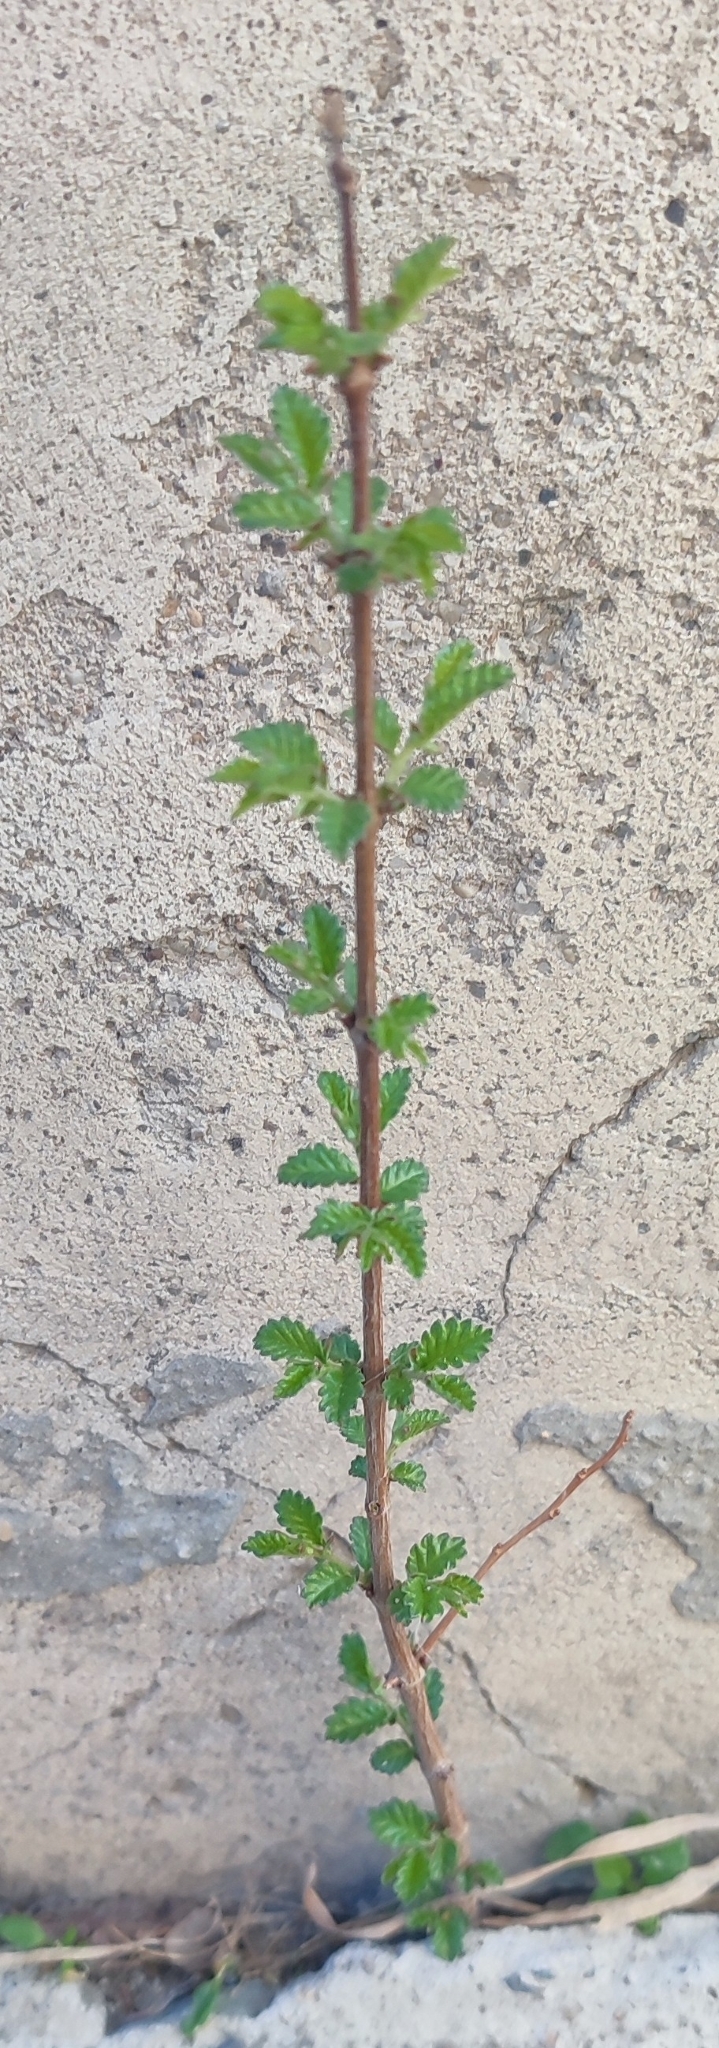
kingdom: Plantae
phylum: Tracheophyta
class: Magnoliopsida
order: Rosales
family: Ulmaceae
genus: Ulmus
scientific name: Ulmus pumila
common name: Siberian elm
